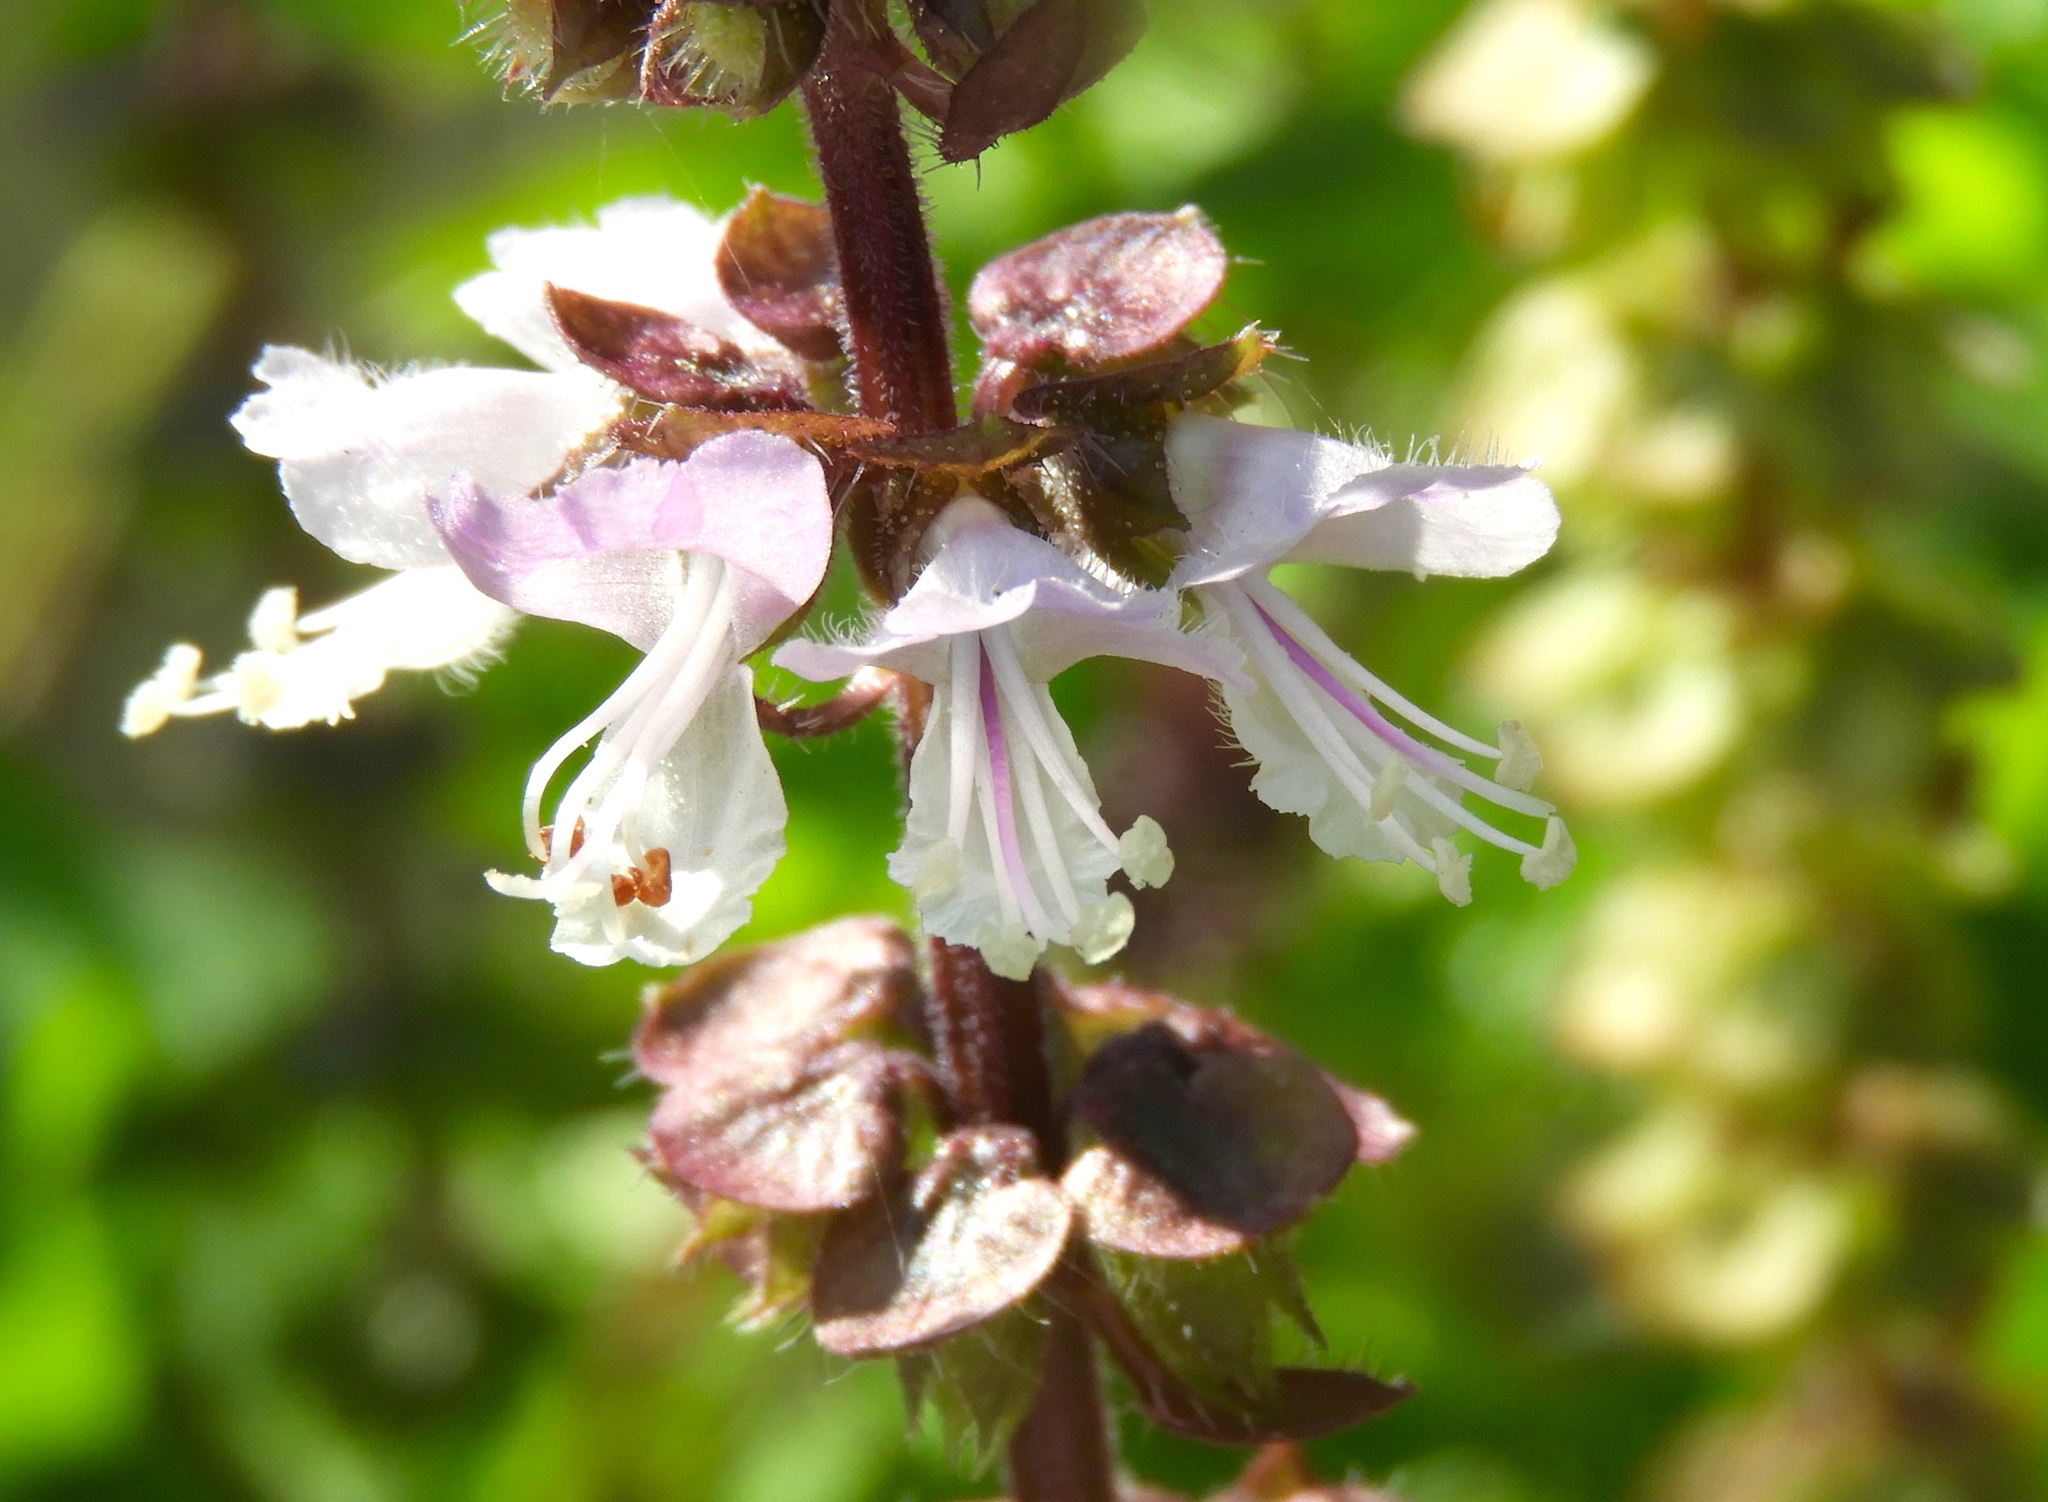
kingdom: Plantae
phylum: Tracheophyta
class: Magnoliopsida
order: Lamiales
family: Lamiaceae
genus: Ocimum
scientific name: Ocimum basilicum
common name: Sweet basil
